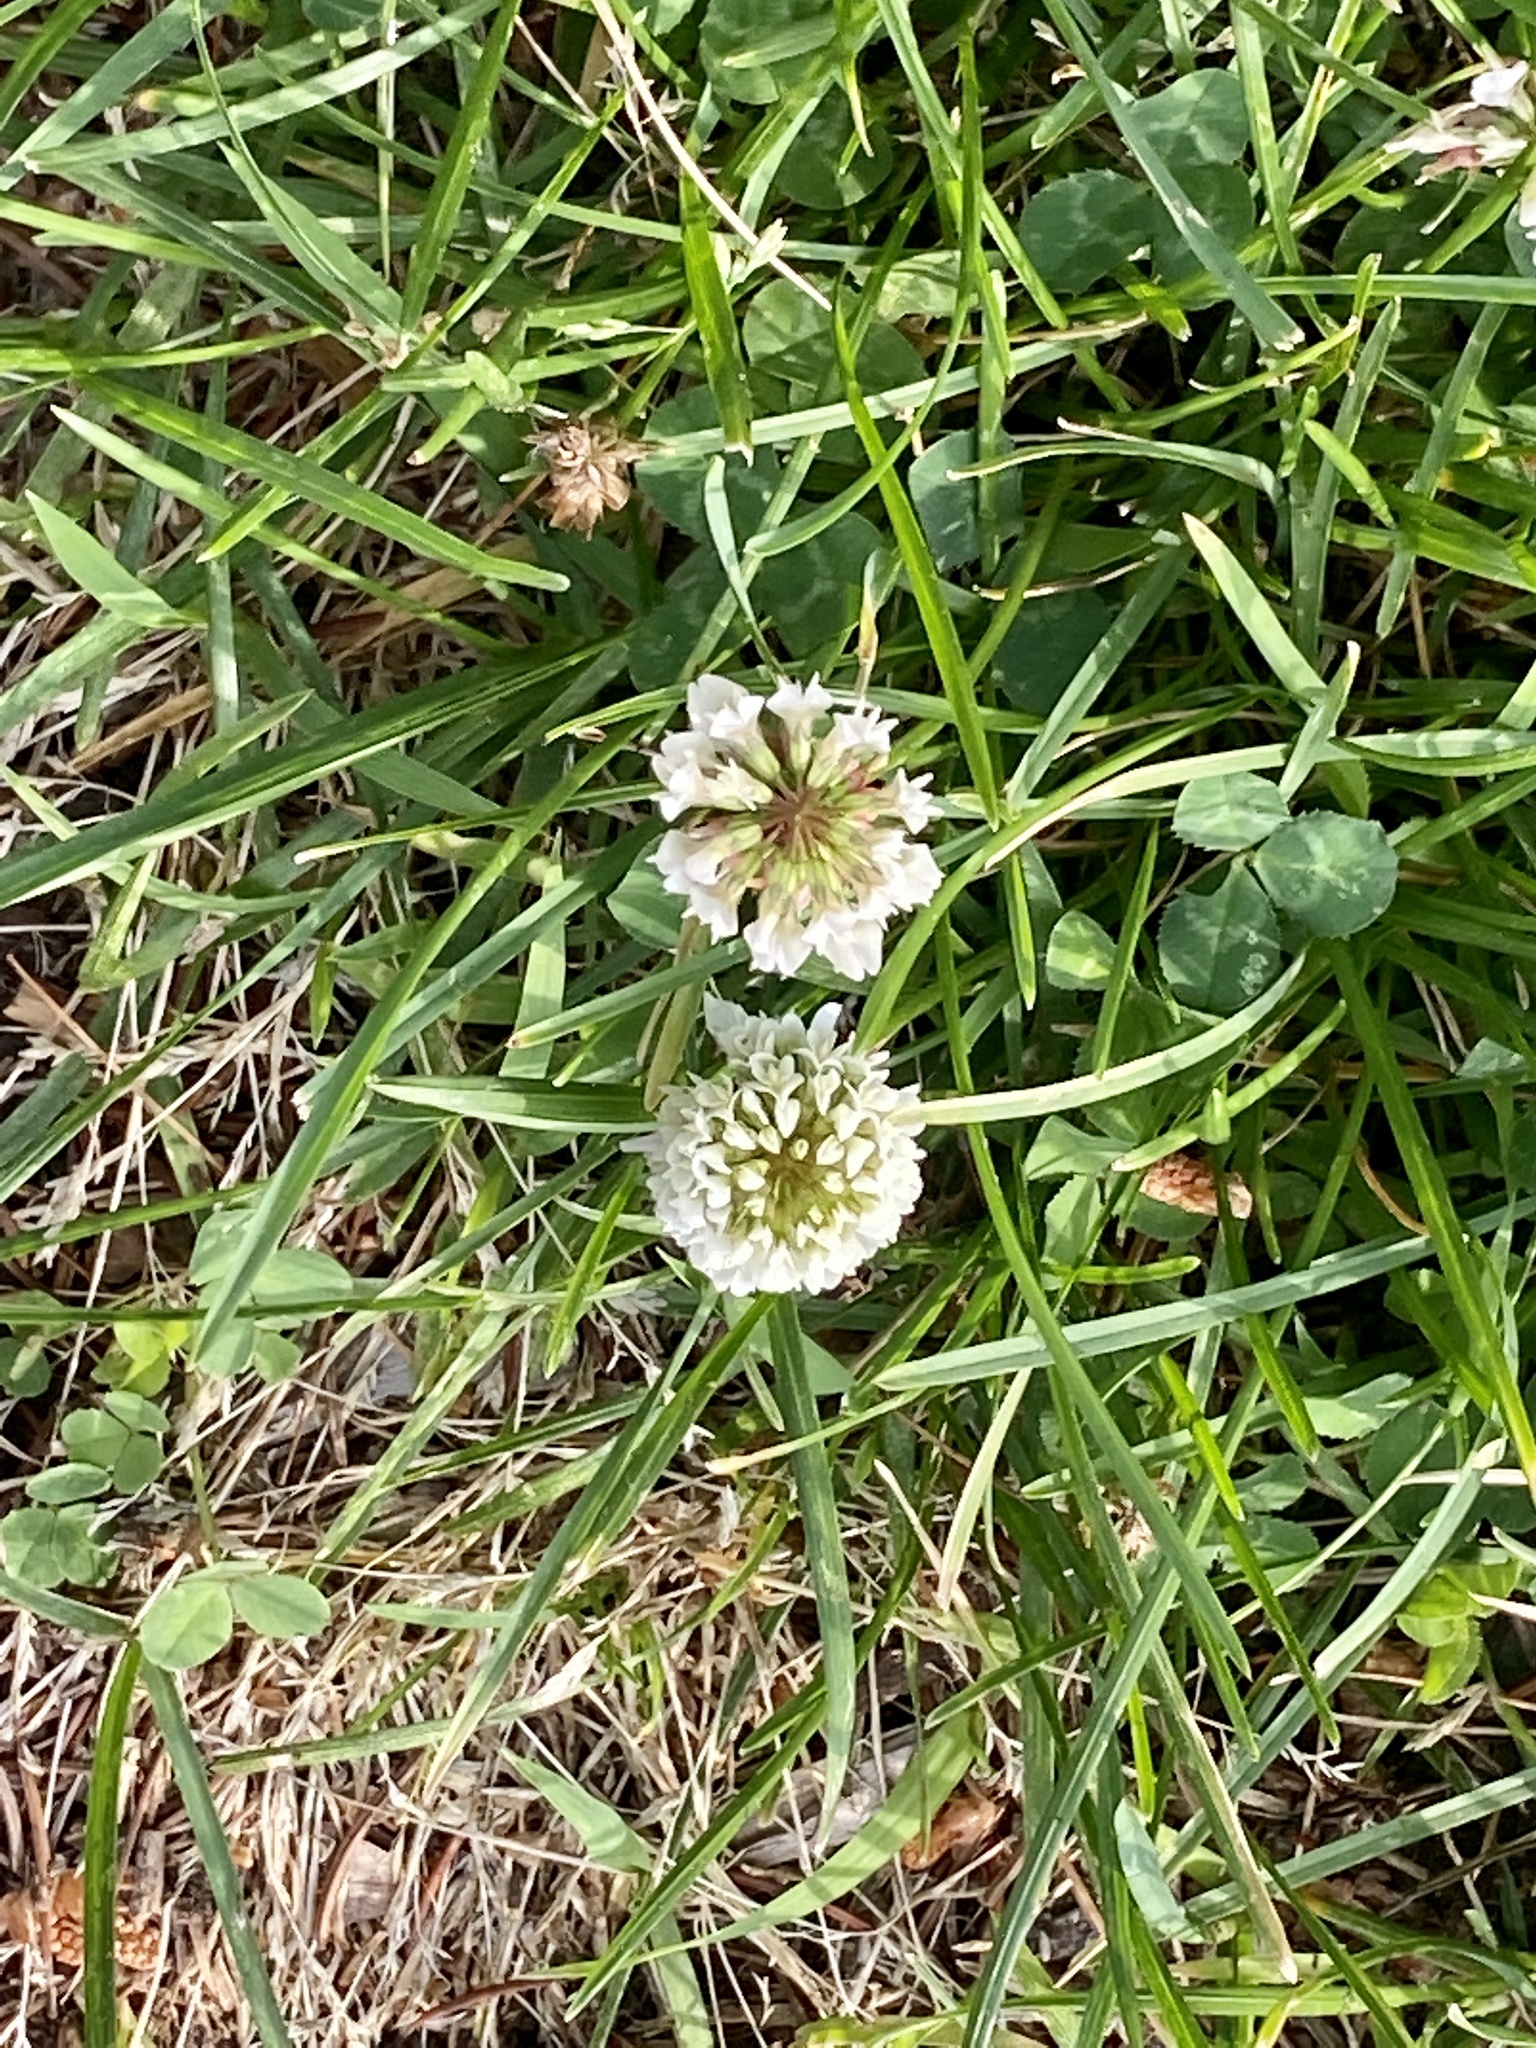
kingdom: Plantae
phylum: Tracheophyta
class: Magnoliopsida
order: Fabales
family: Fabaceae
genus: Trifolium
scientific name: Trifolium repens
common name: White clover
